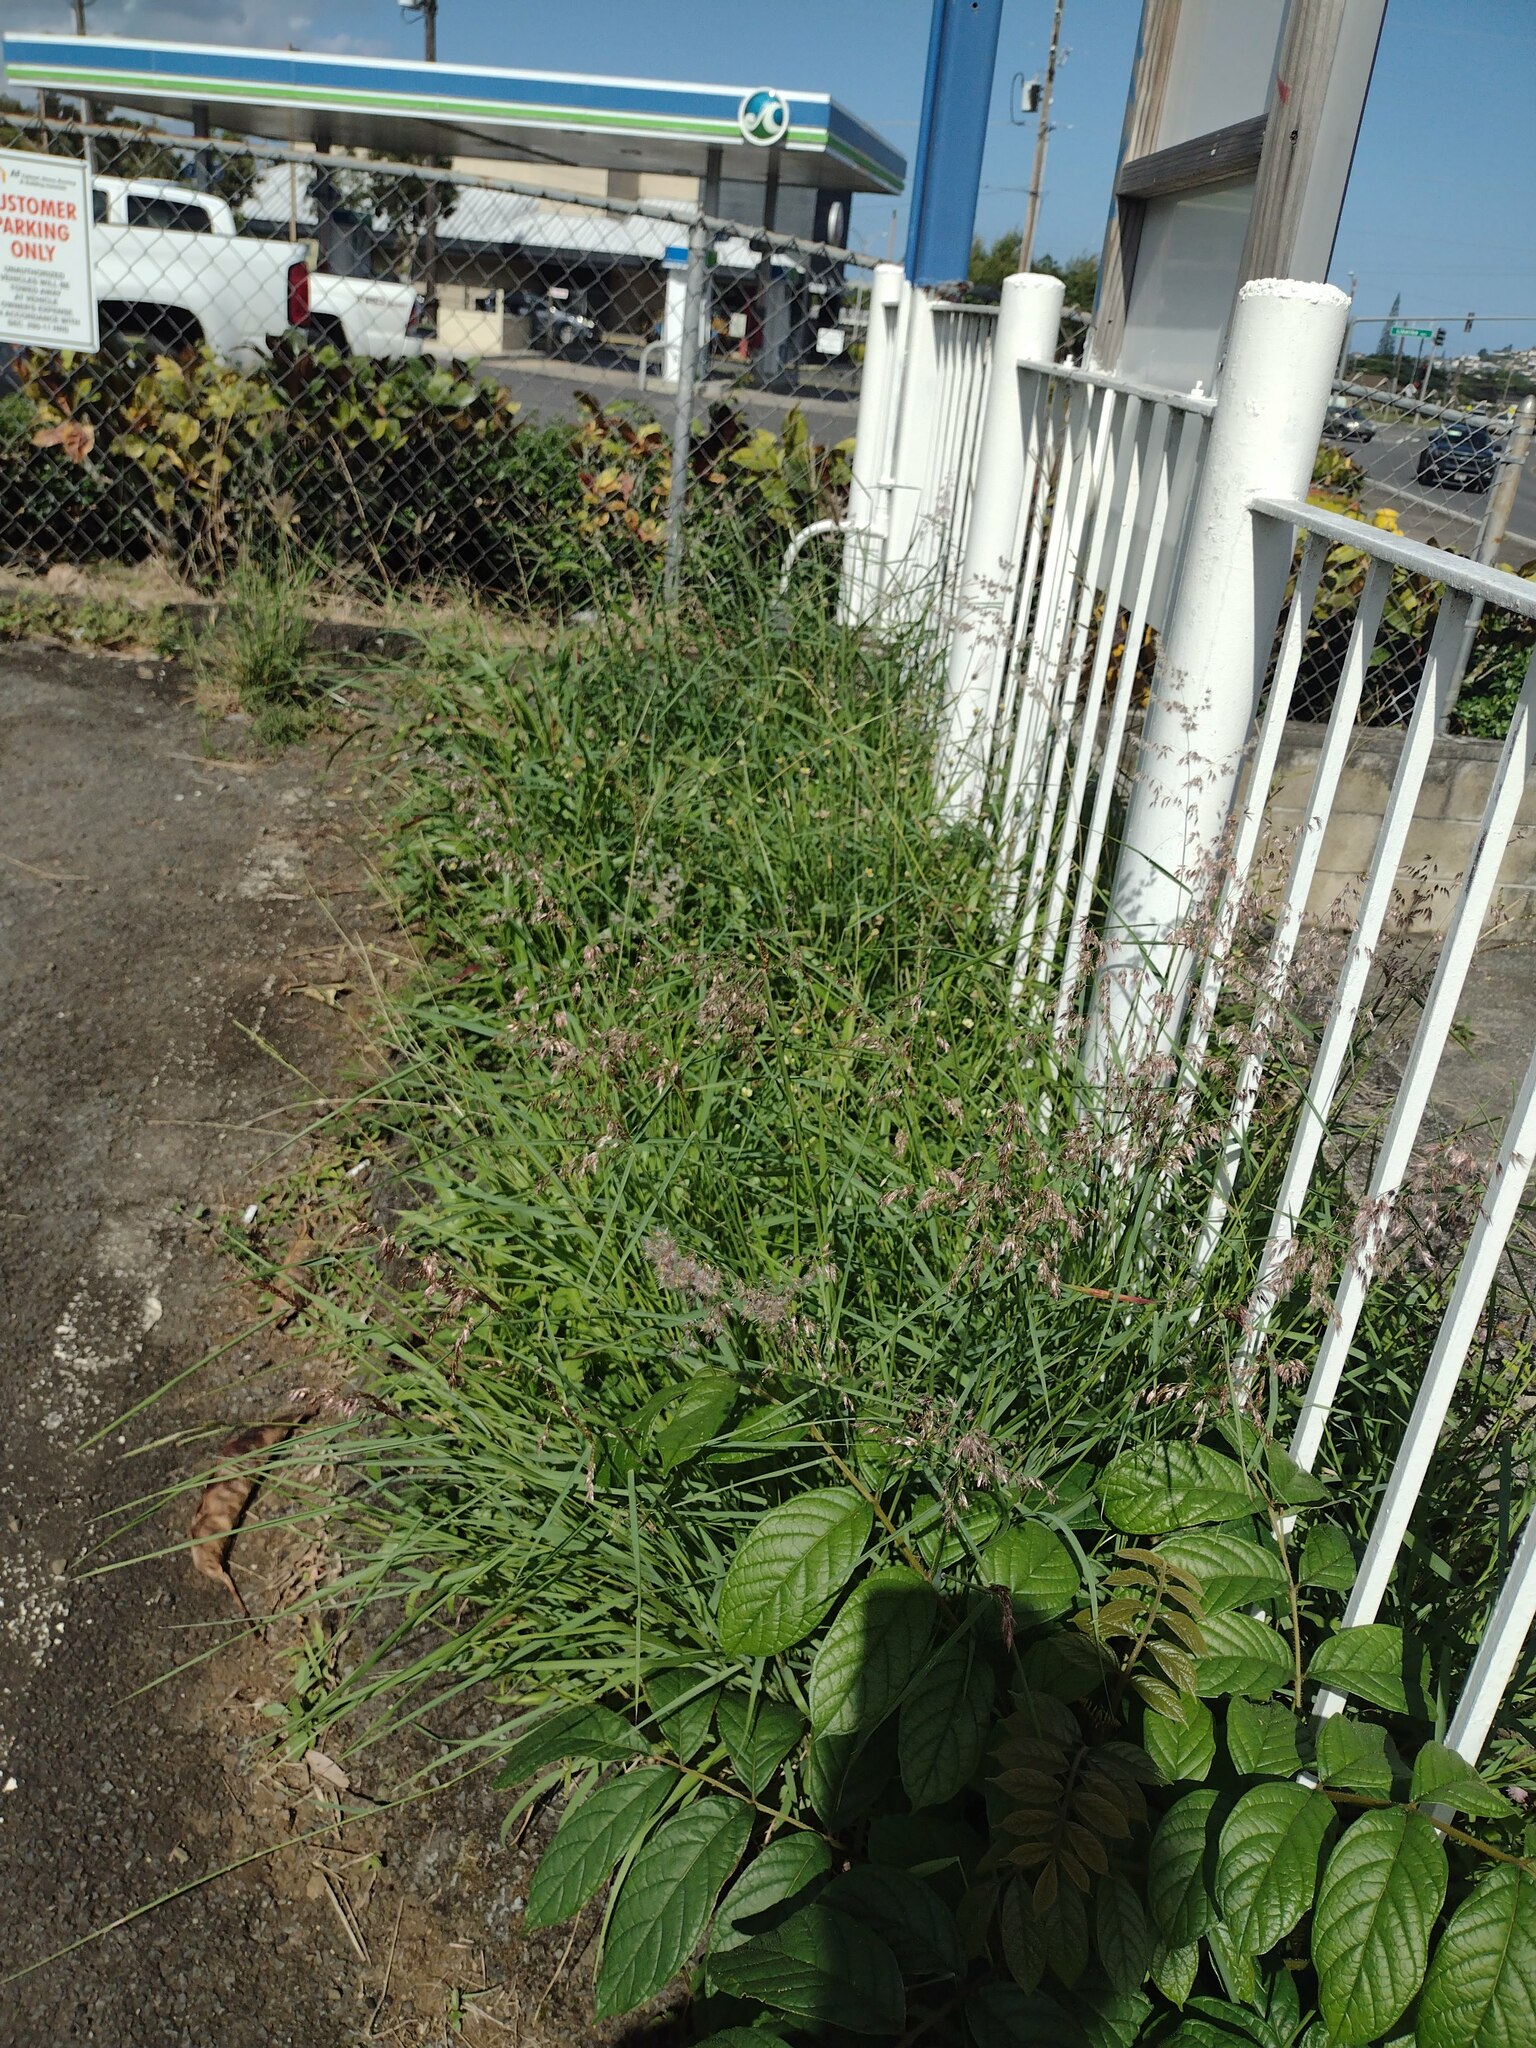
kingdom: Plantae
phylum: Tracheophyta
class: Liliopsida
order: Poales
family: Poaceae
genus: Melinis
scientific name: Melinis repens
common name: Rose natal grass
